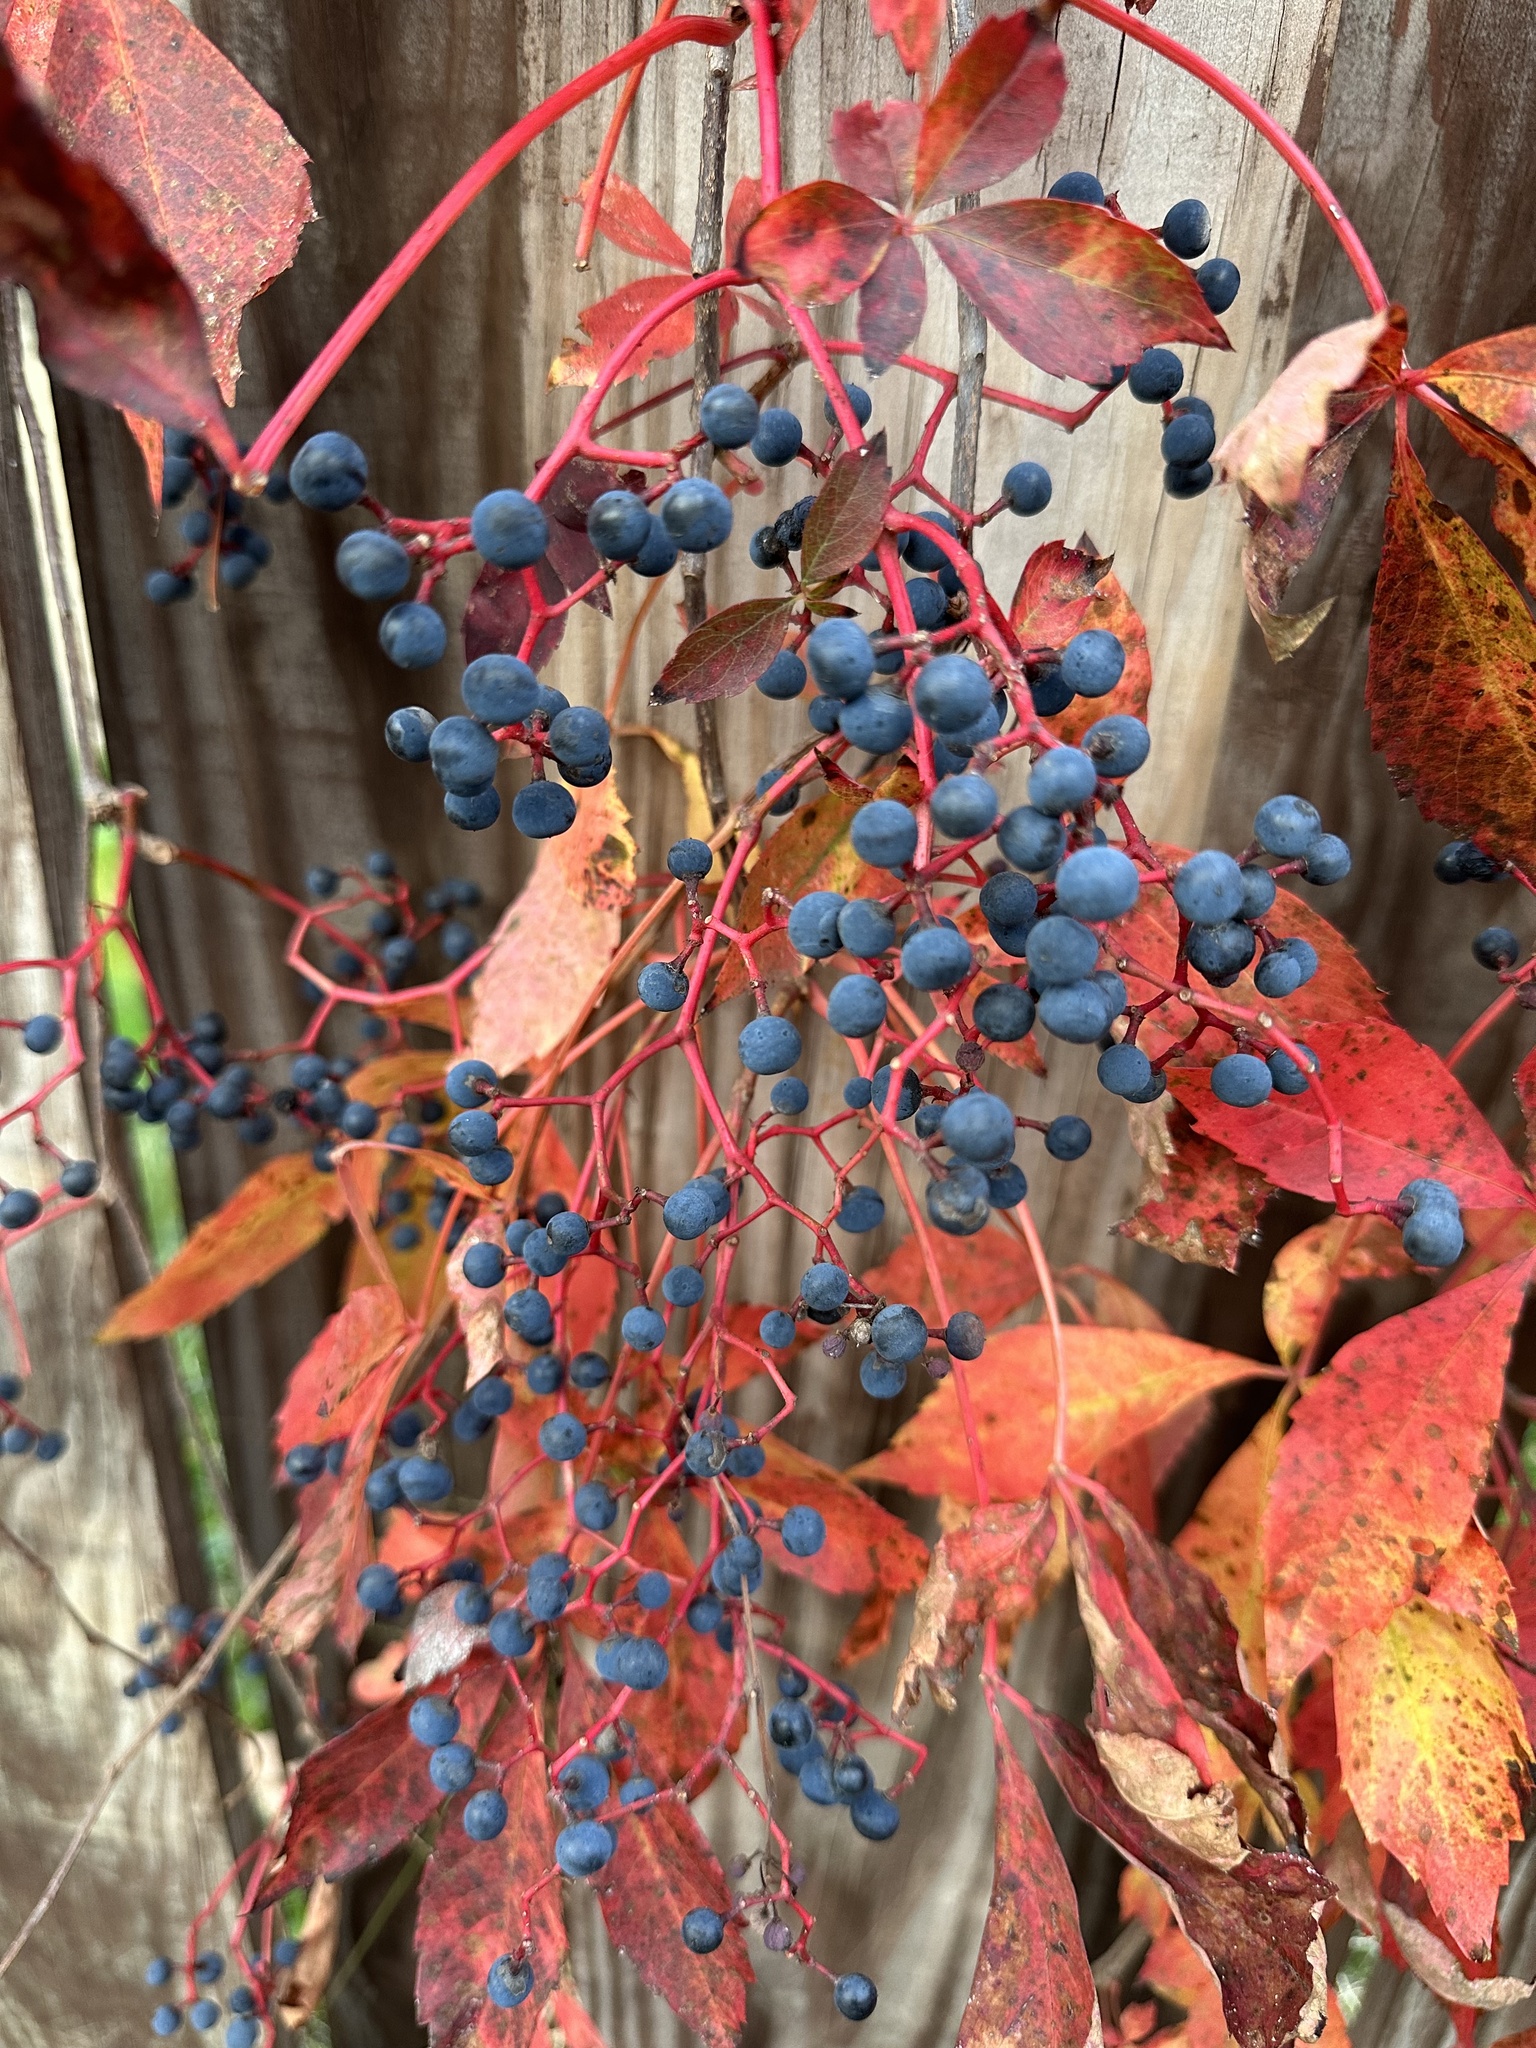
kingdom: Plantae
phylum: Tracheophyta
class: Magnoliopsida
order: Vitales
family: Vitaceae
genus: Parthenocissus
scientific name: Parthenocissus quinquefolia
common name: Virginia-creeper
